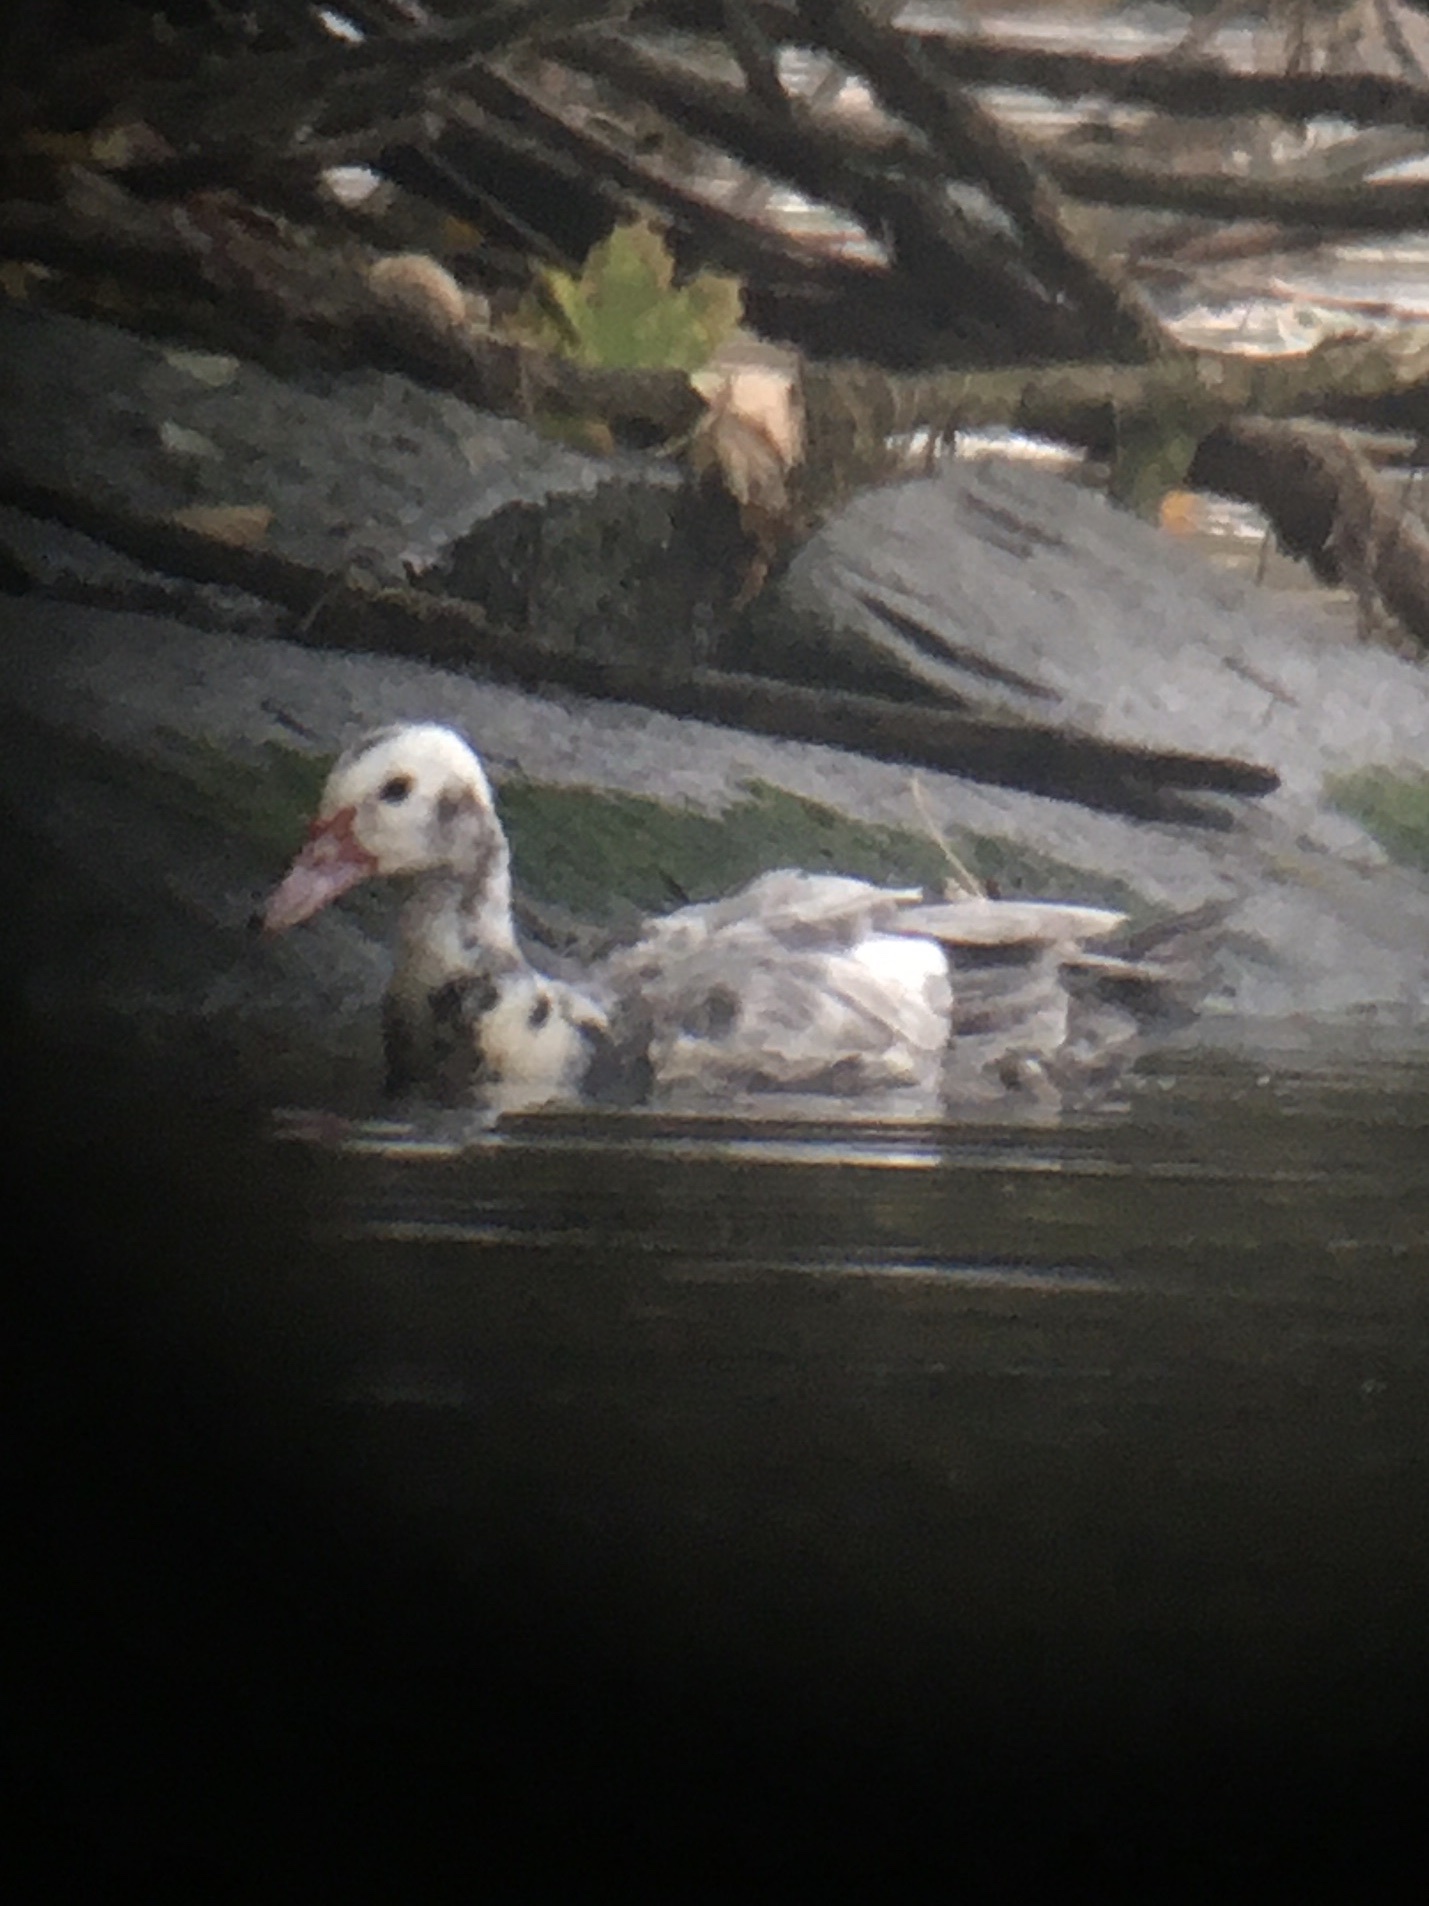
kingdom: Animalia
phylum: Chordata
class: Aves
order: Anseriformes
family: Anatidae
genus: Cairina
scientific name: Cairina moschata
